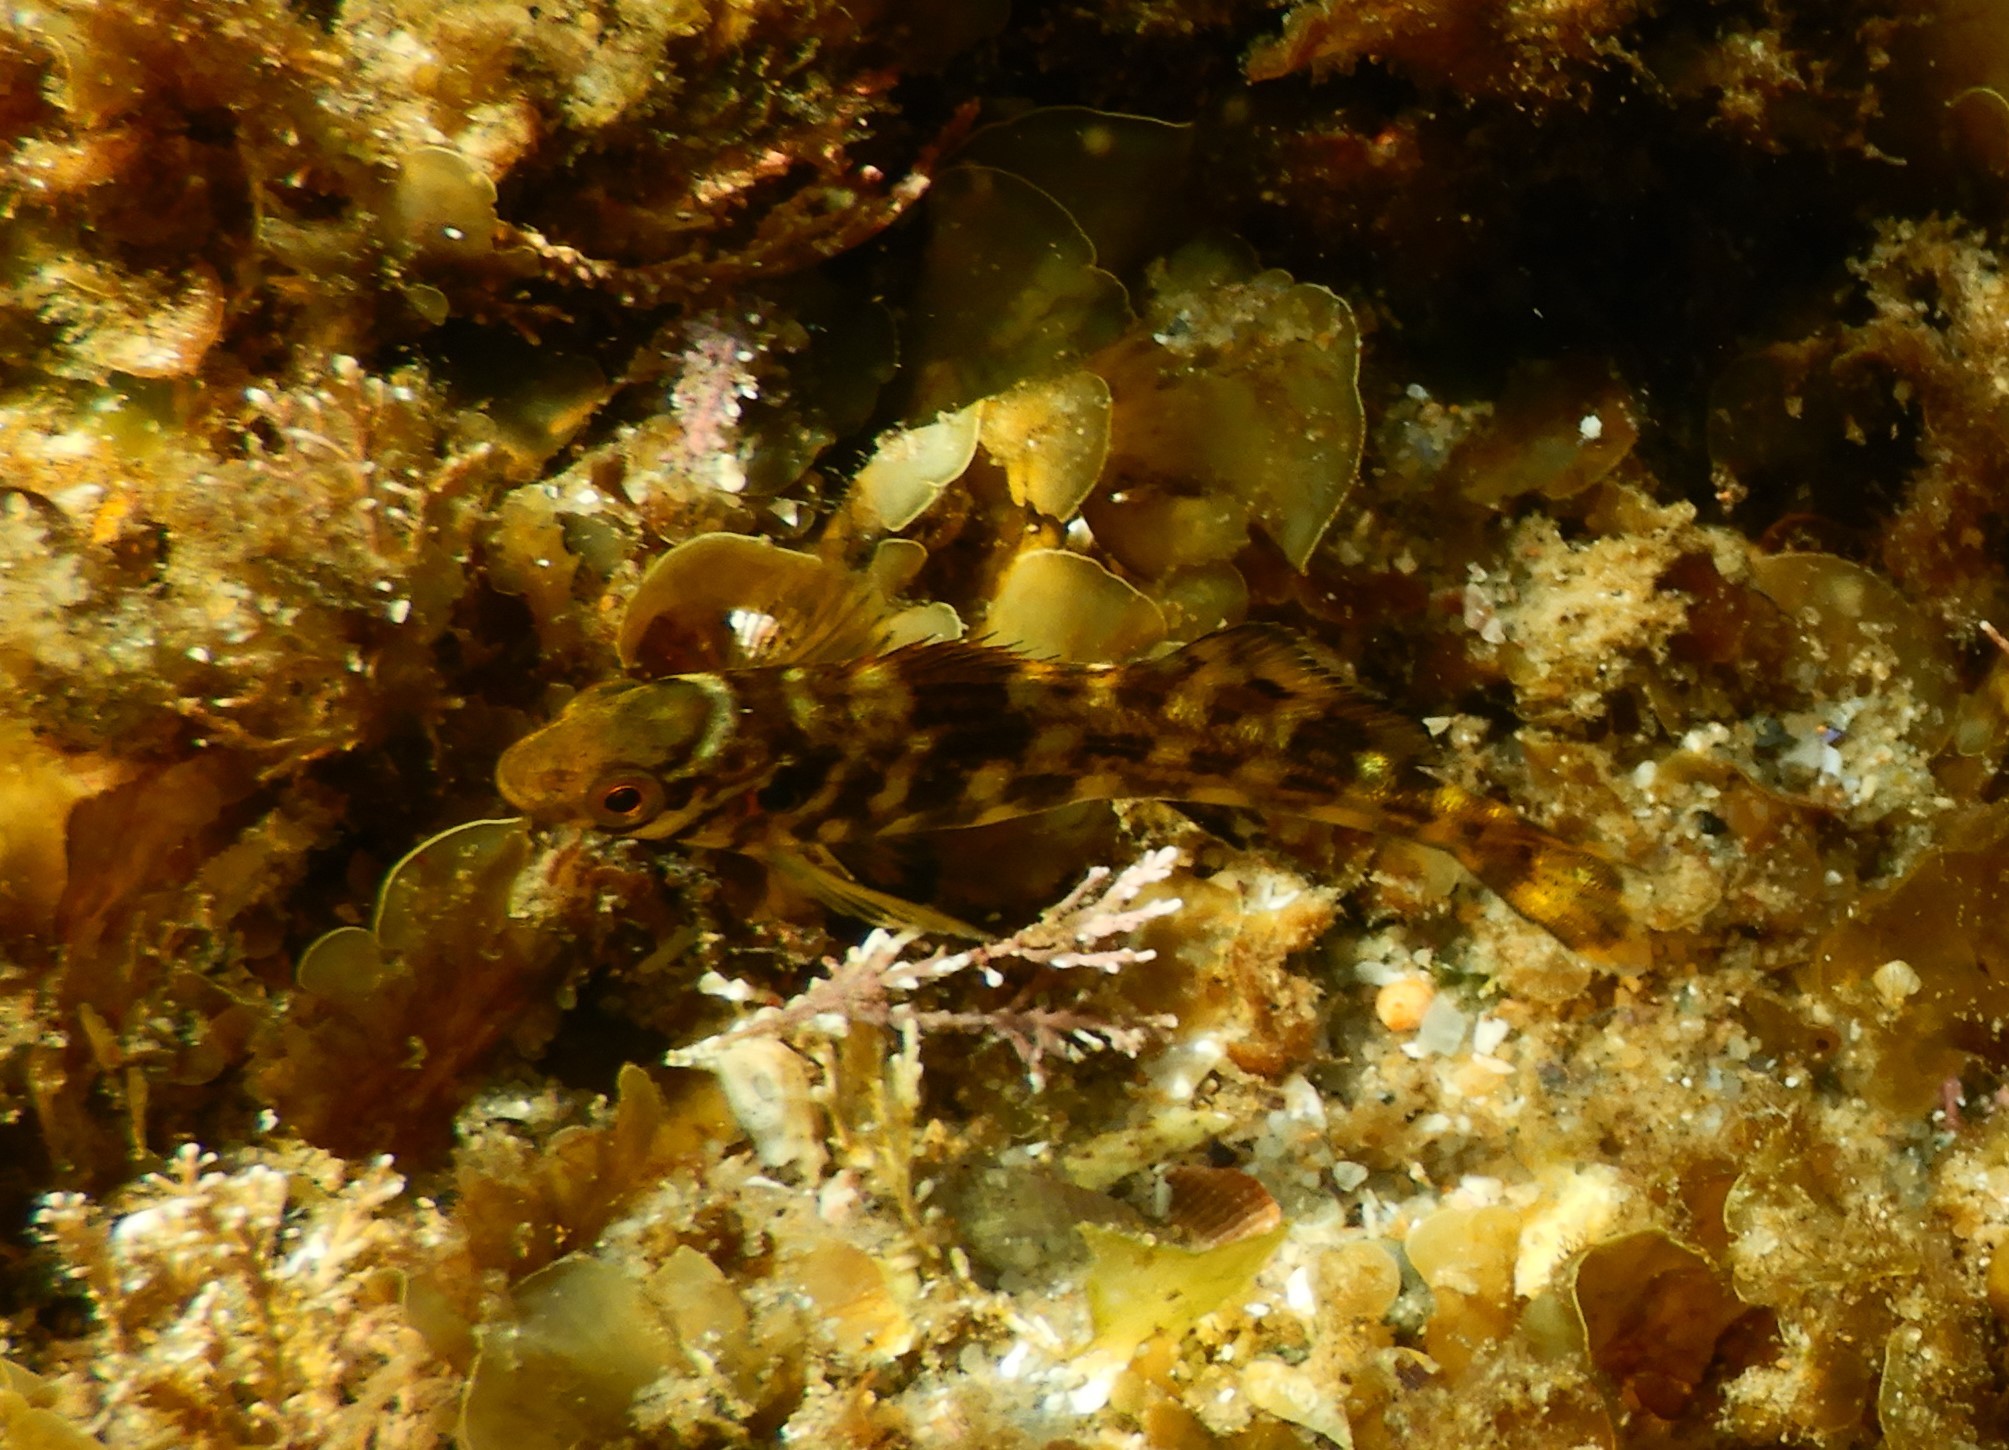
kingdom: Animalia
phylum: Chordata
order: Perciformes
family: Aplodactylidae
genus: Aplodactylus
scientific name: Aplodactylus lophodon
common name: Cockatoo fish
